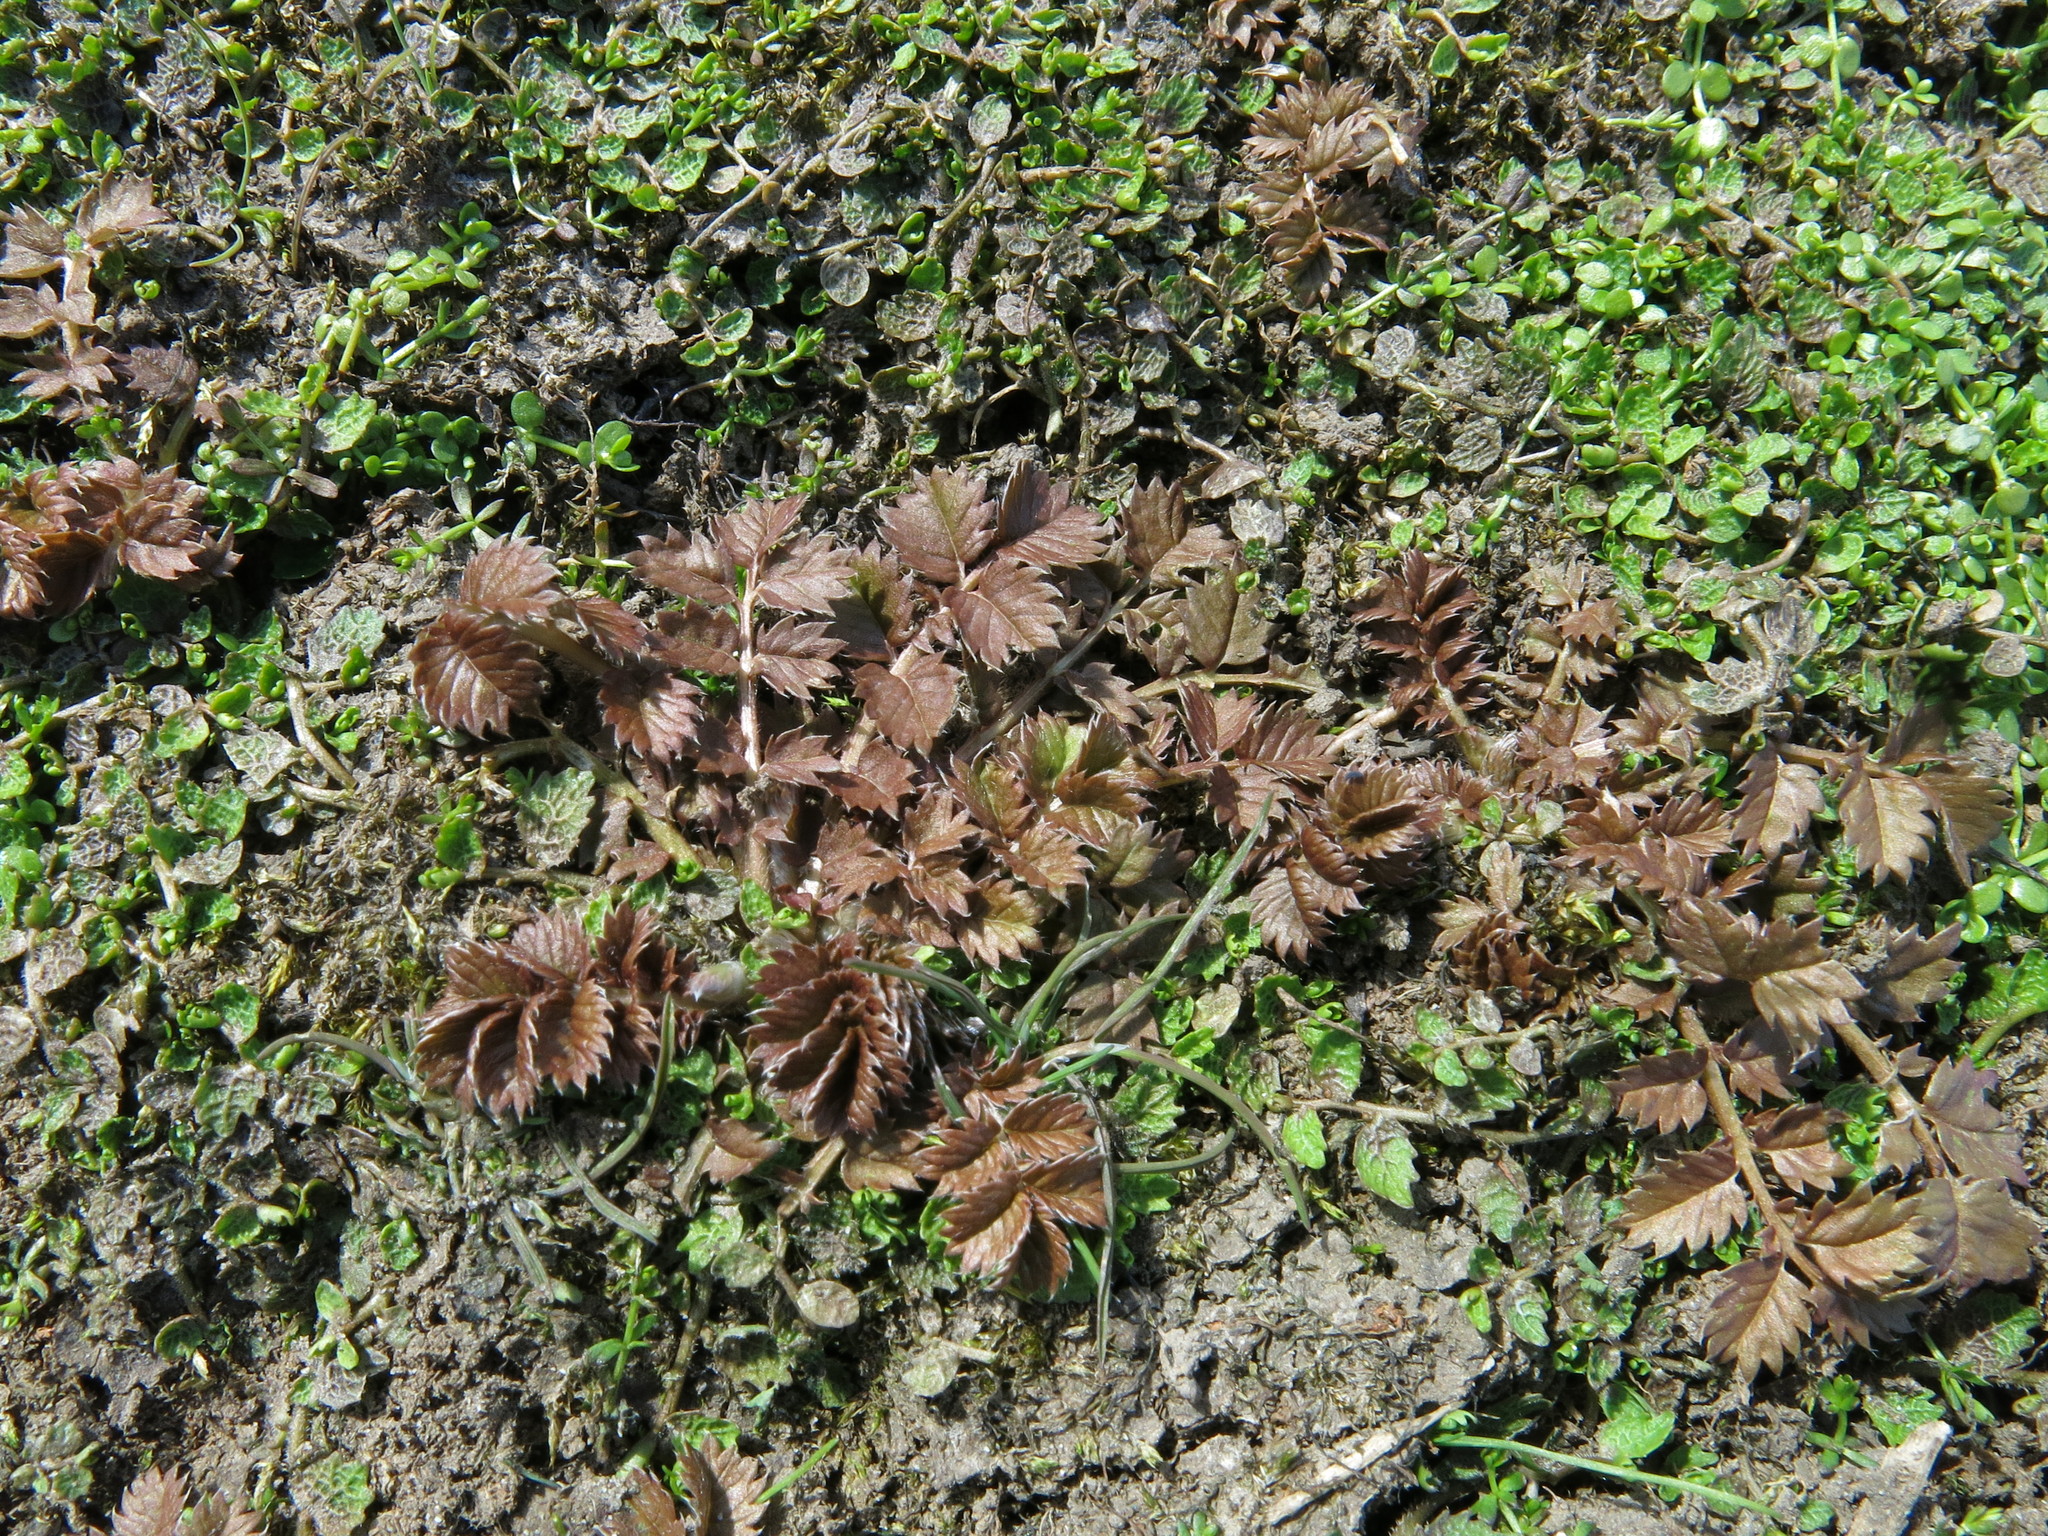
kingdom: Plantae
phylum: Tracheophyta
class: Magnoliopsida
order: Rosales
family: Rosaceae
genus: Argentina
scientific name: Argentina anserinoides
